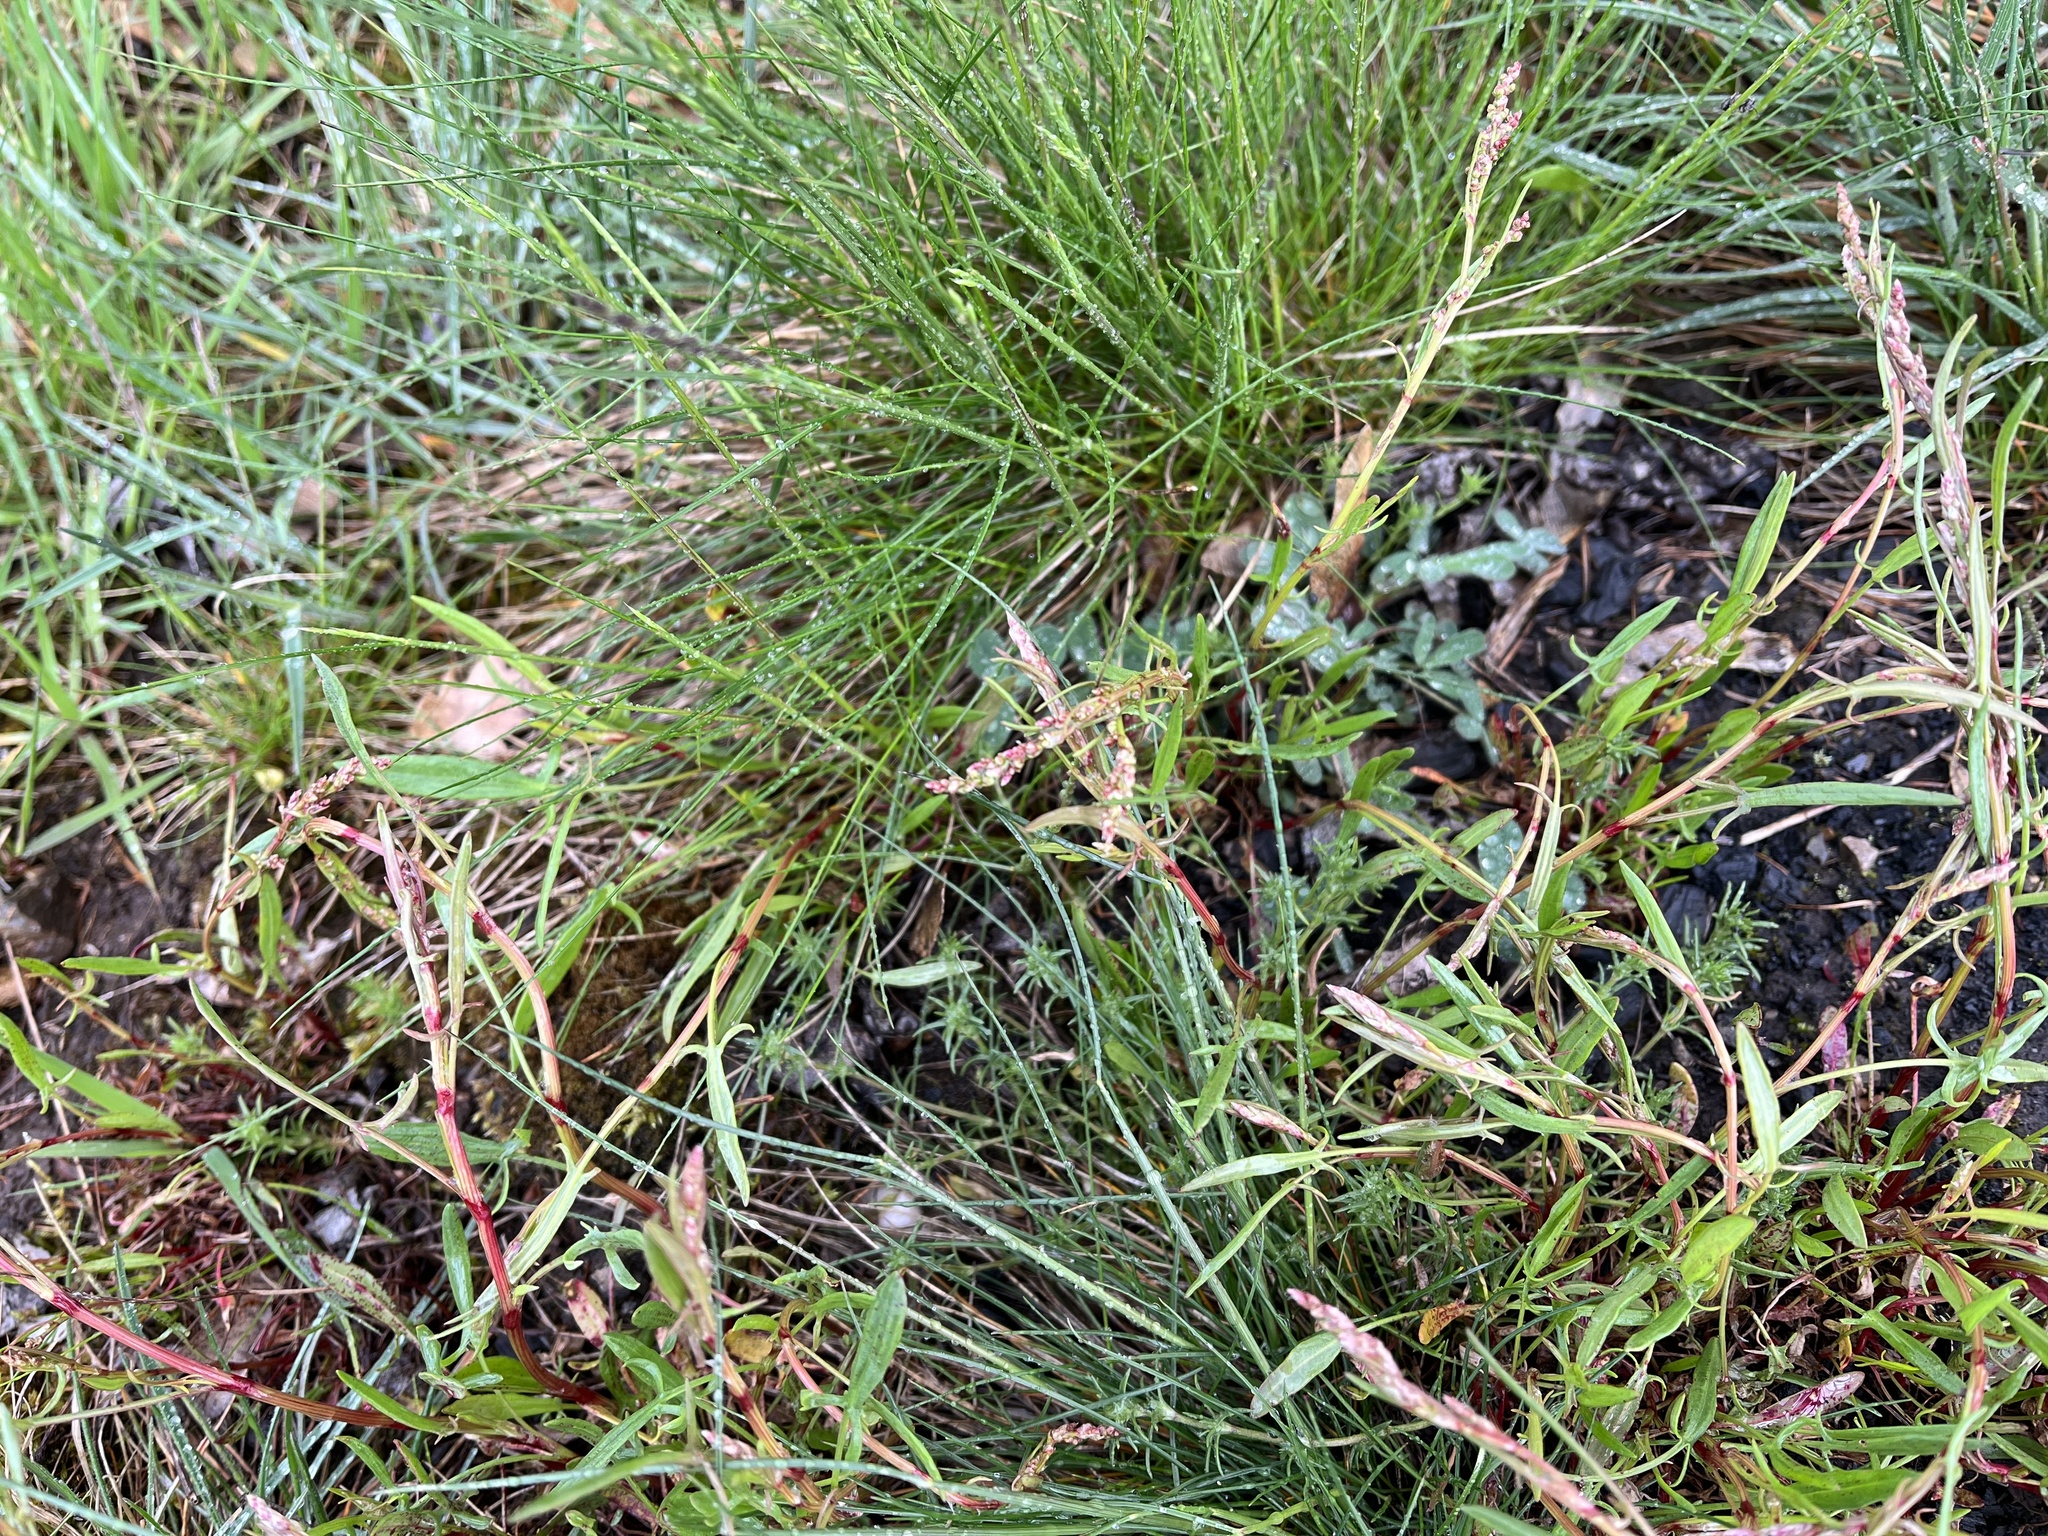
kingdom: Plantae
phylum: Tracheophyta
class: Magnoliopsida
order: Caryophyllales
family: Polygonaceae
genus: Rumex
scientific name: Rumex acetosella
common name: Common sheep sorrel
